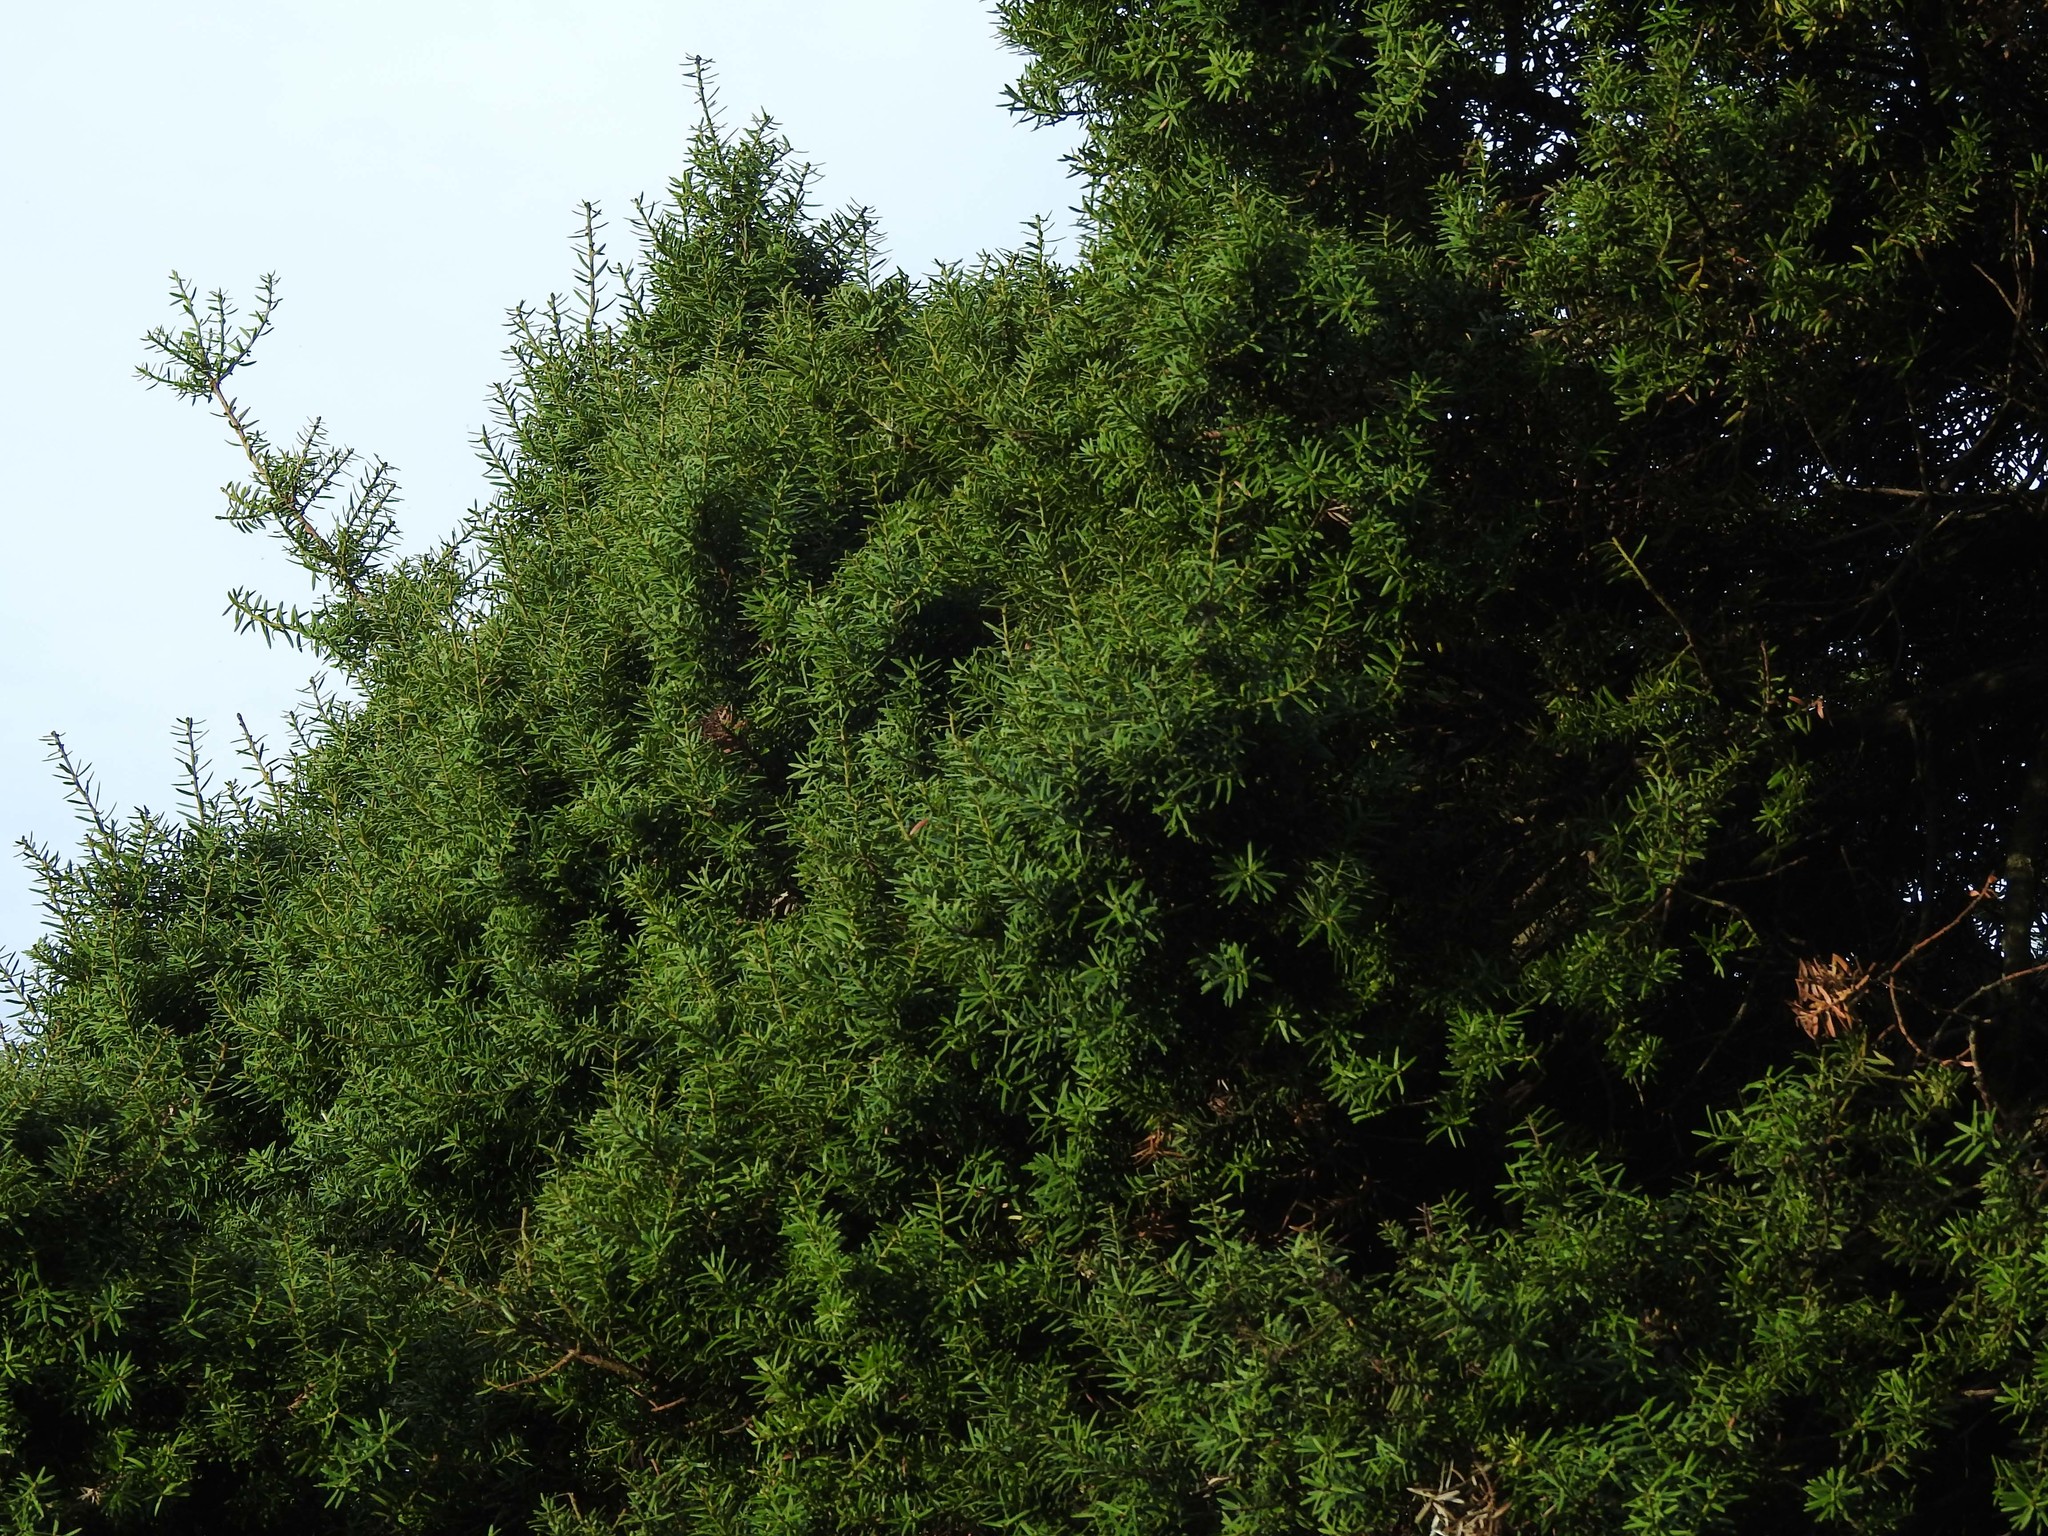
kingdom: Plantae
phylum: Tracheophyta
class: Pinopsida
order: Pinales
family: Podocarpaceae
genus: Podocarpus
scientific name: Podocarpus laetus
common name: Hall's totara
